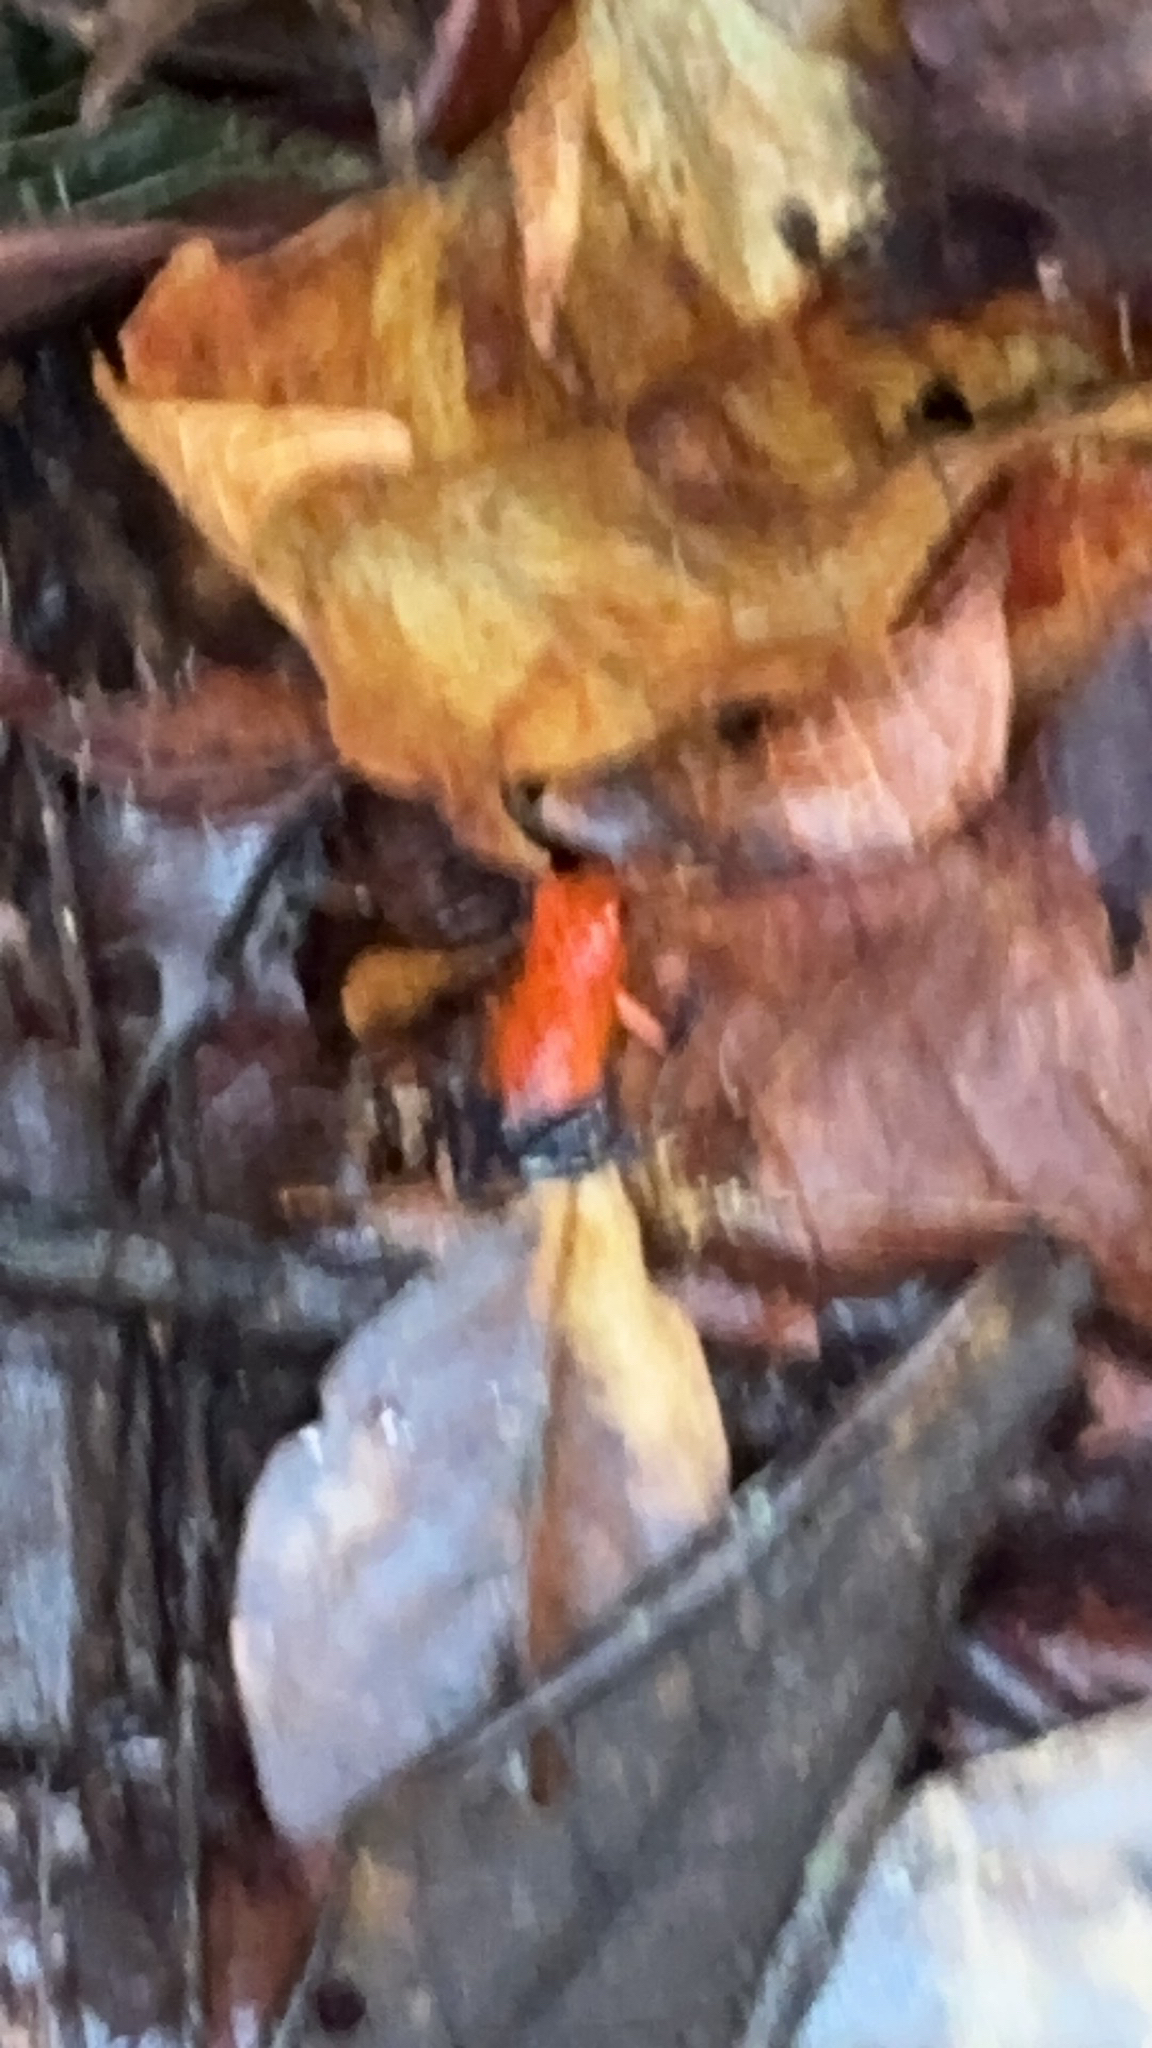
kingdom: Animalia
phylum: Chordata
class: Amphibia
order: Anura
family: Dendrobatidae
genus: Oophaga
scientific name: Oophaga pumilio
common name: Flaming poison frog
